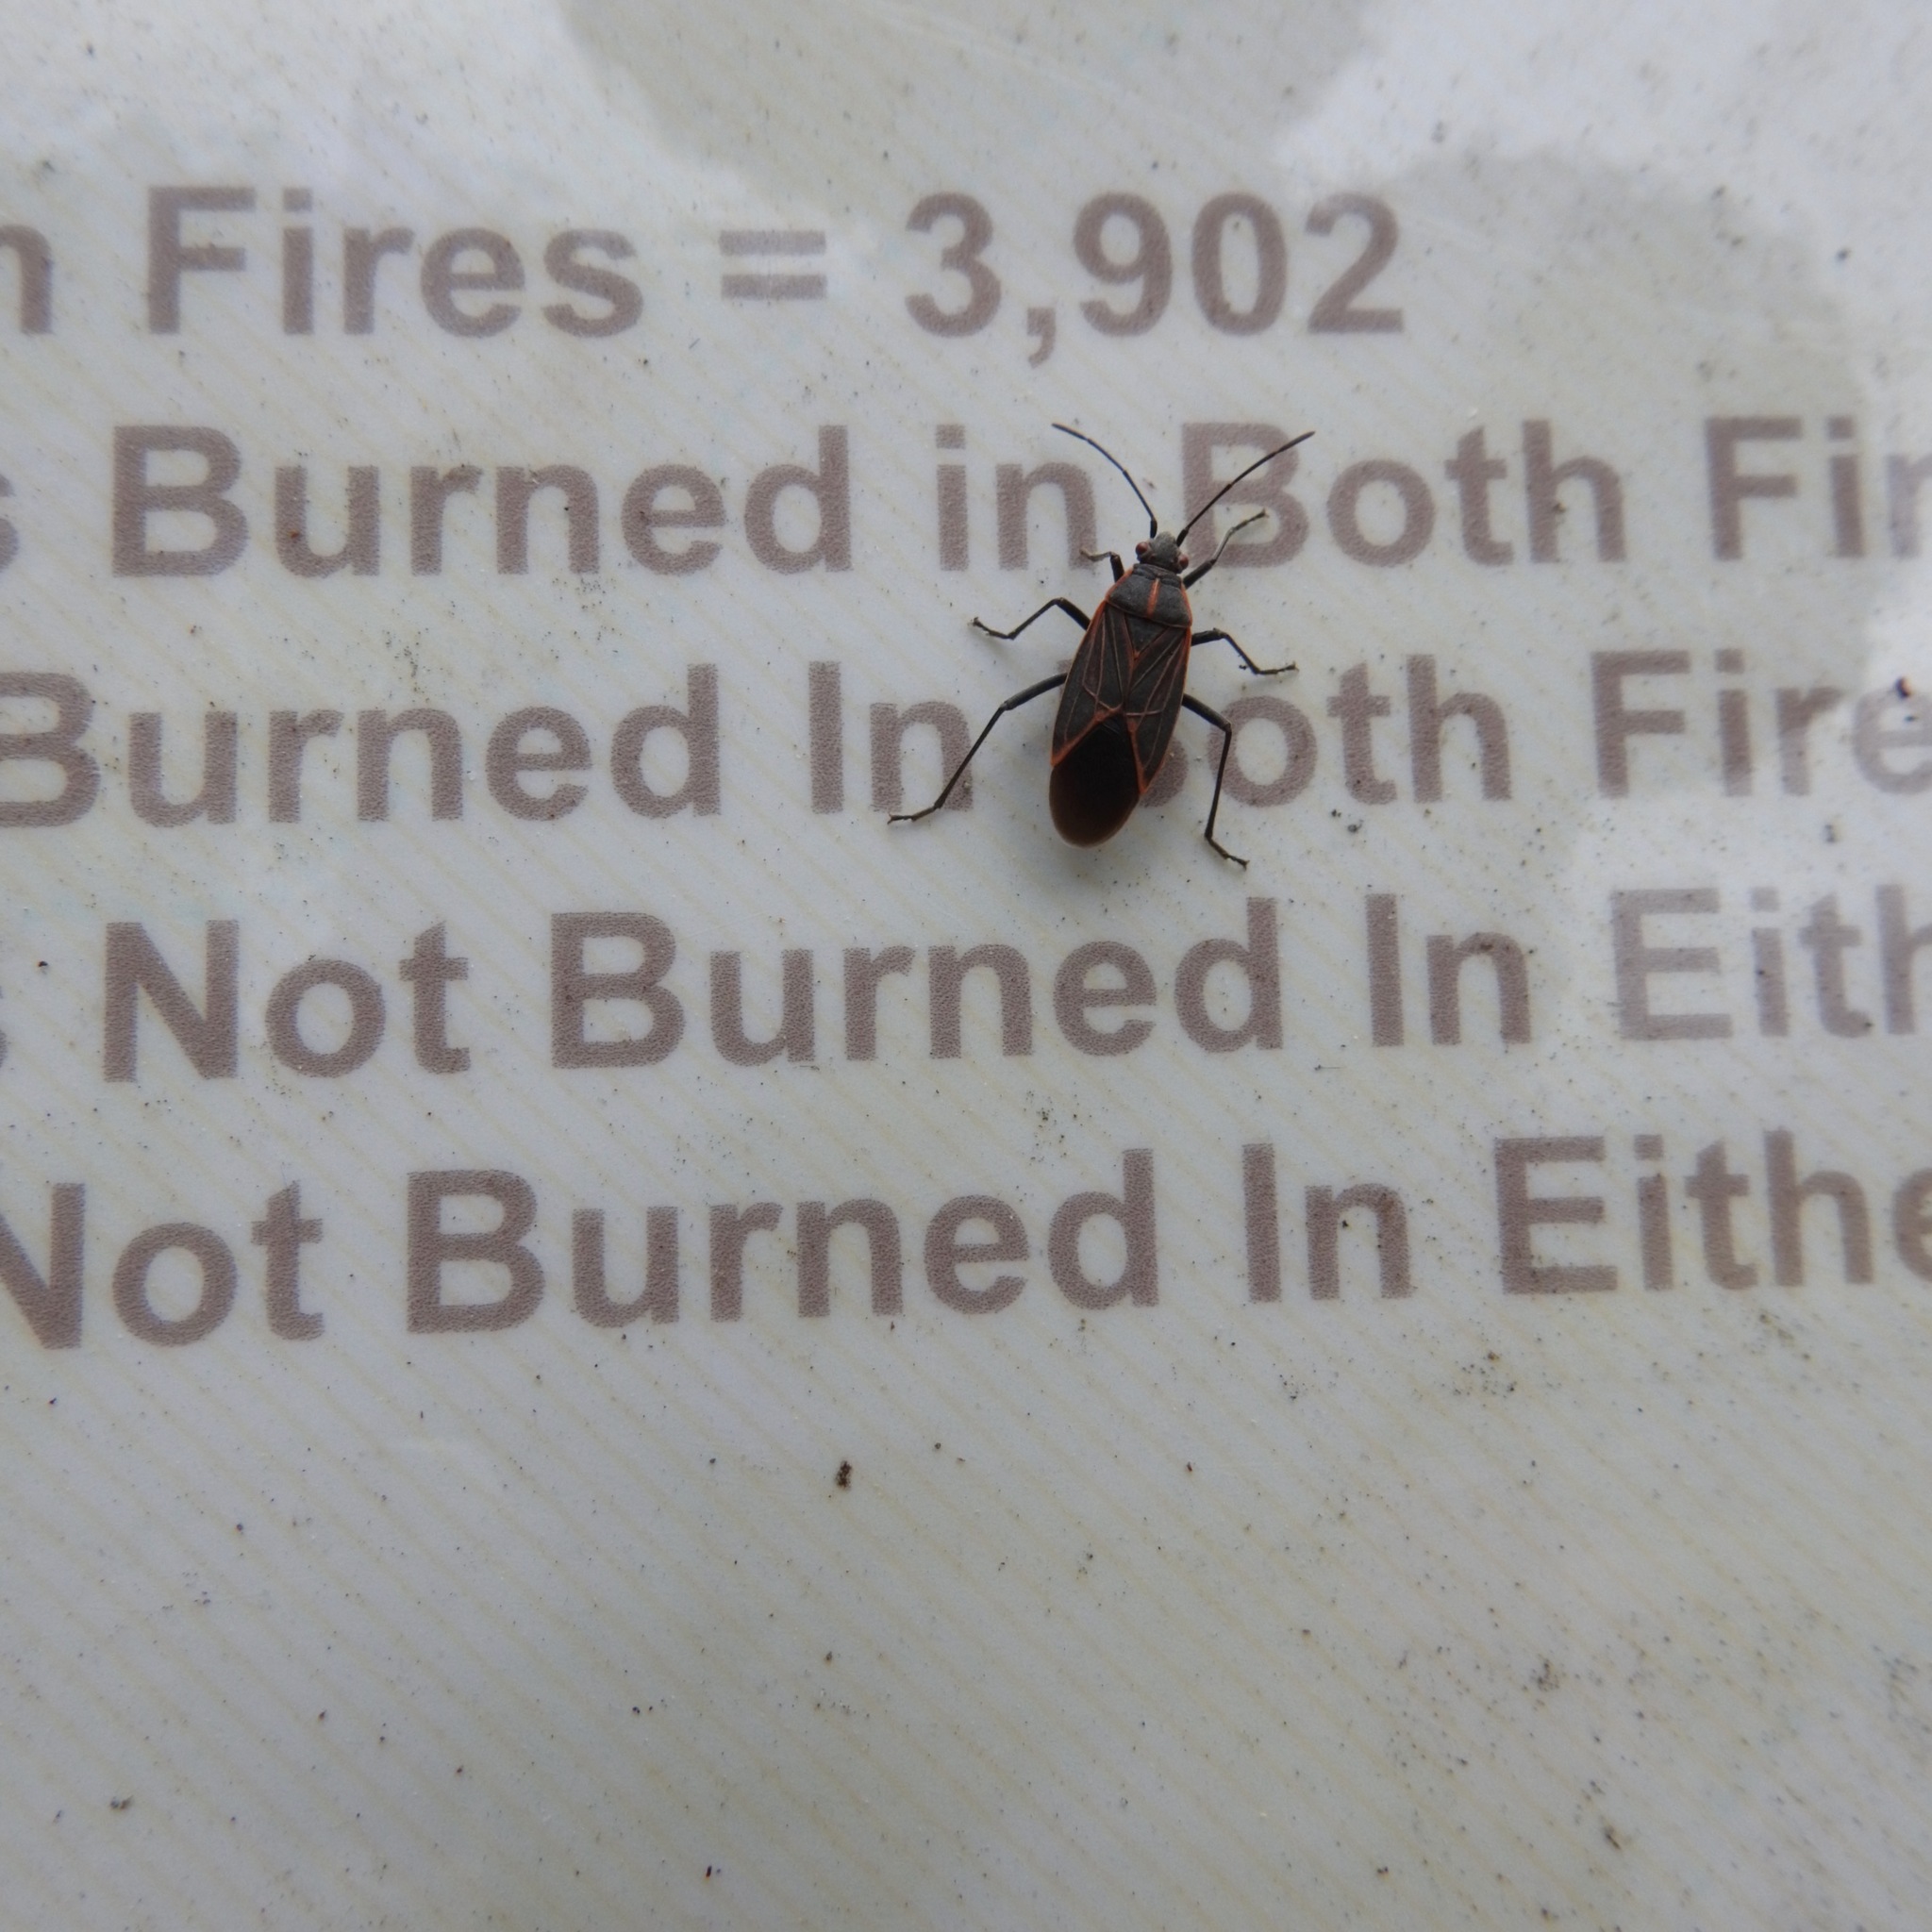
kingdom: Animalia
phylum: Arthropoda
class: Insecta
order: Hemiptera
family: Rhopalidae
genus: Boisea
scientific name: Boisea rubrolineata
